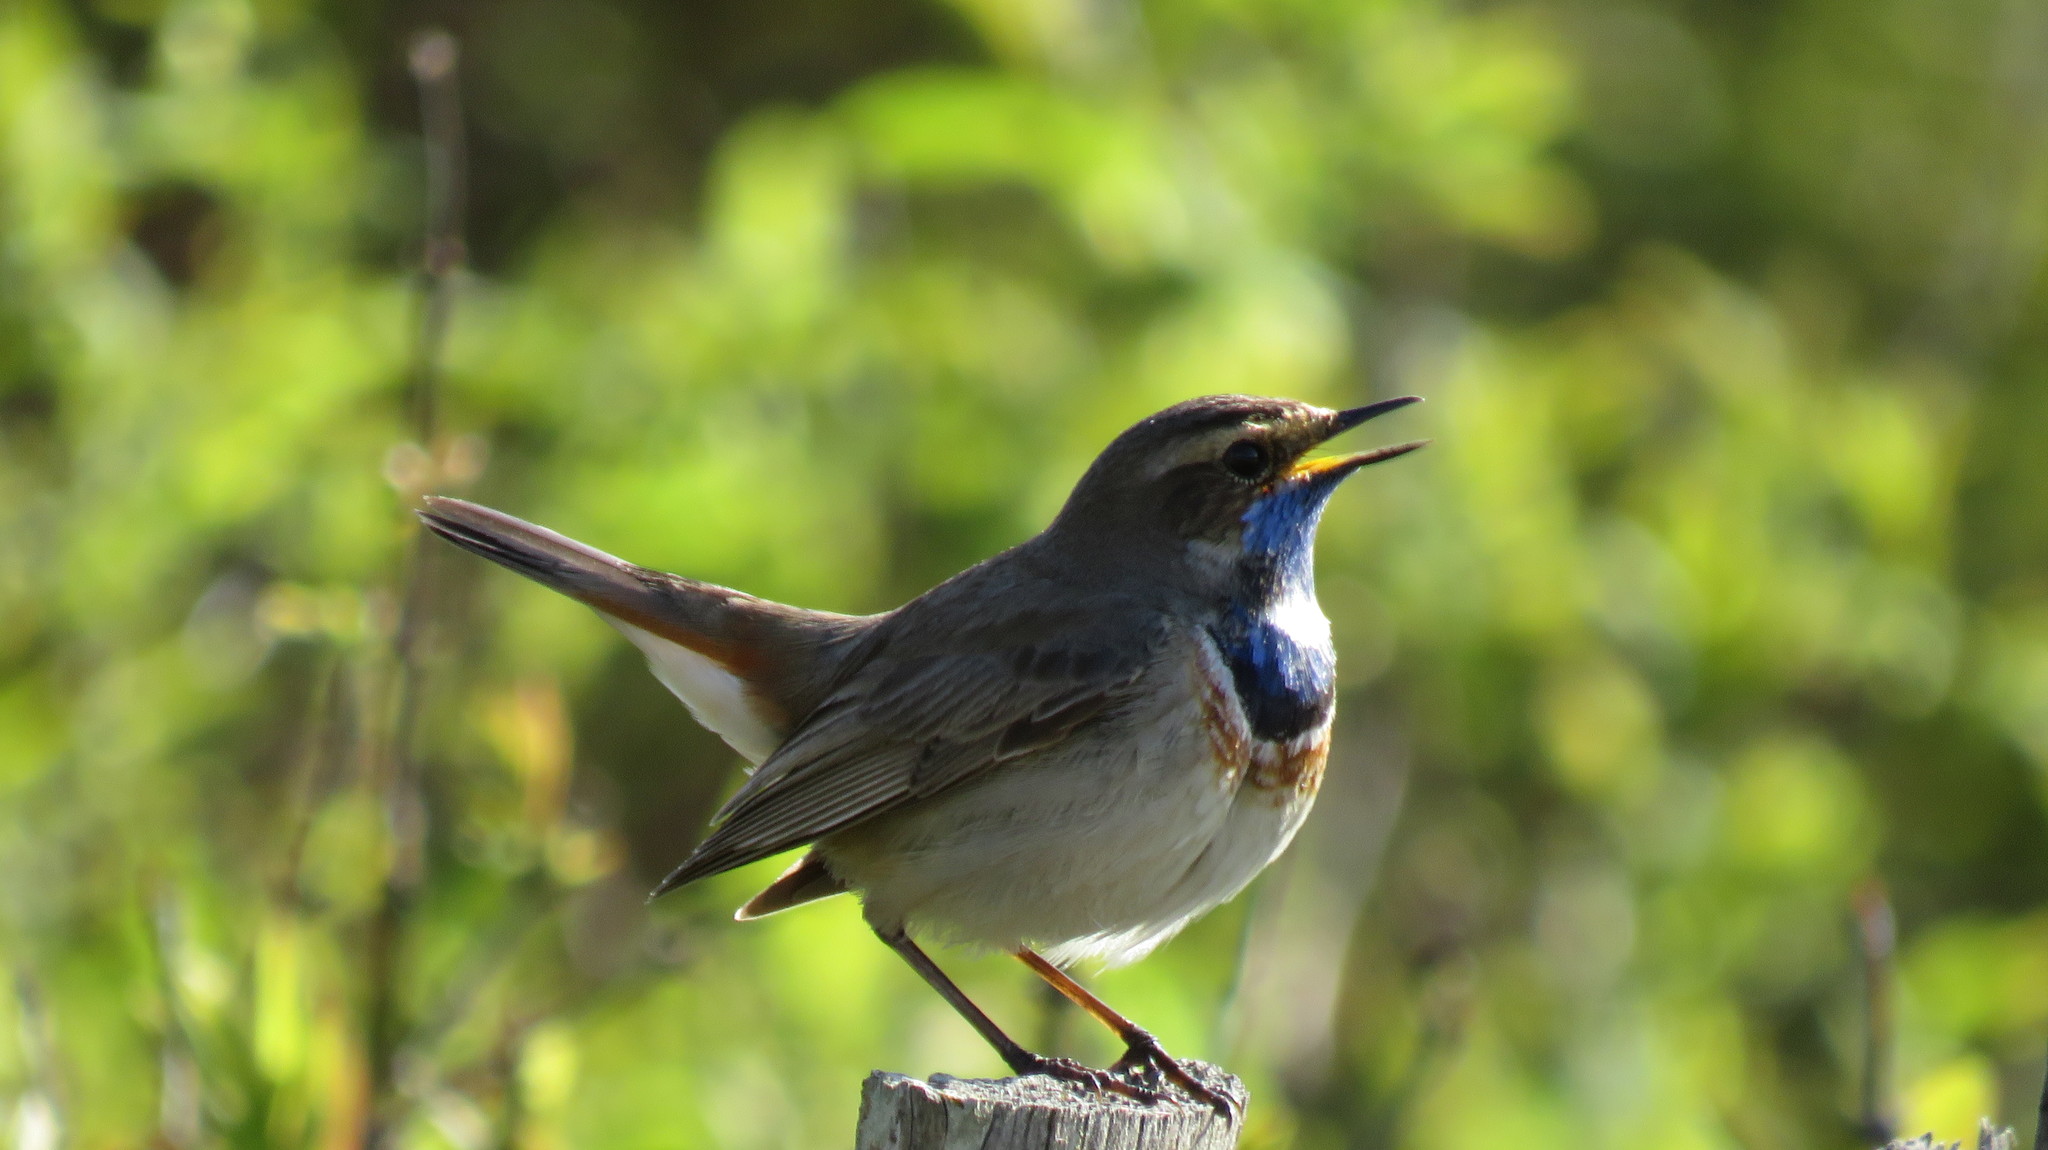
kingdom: Animalia
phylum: Chordata
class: Aves
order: Passeriformes
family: Muscicapidae
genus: Luscinia
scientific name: Luscinia svecica
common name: Bluethroat
